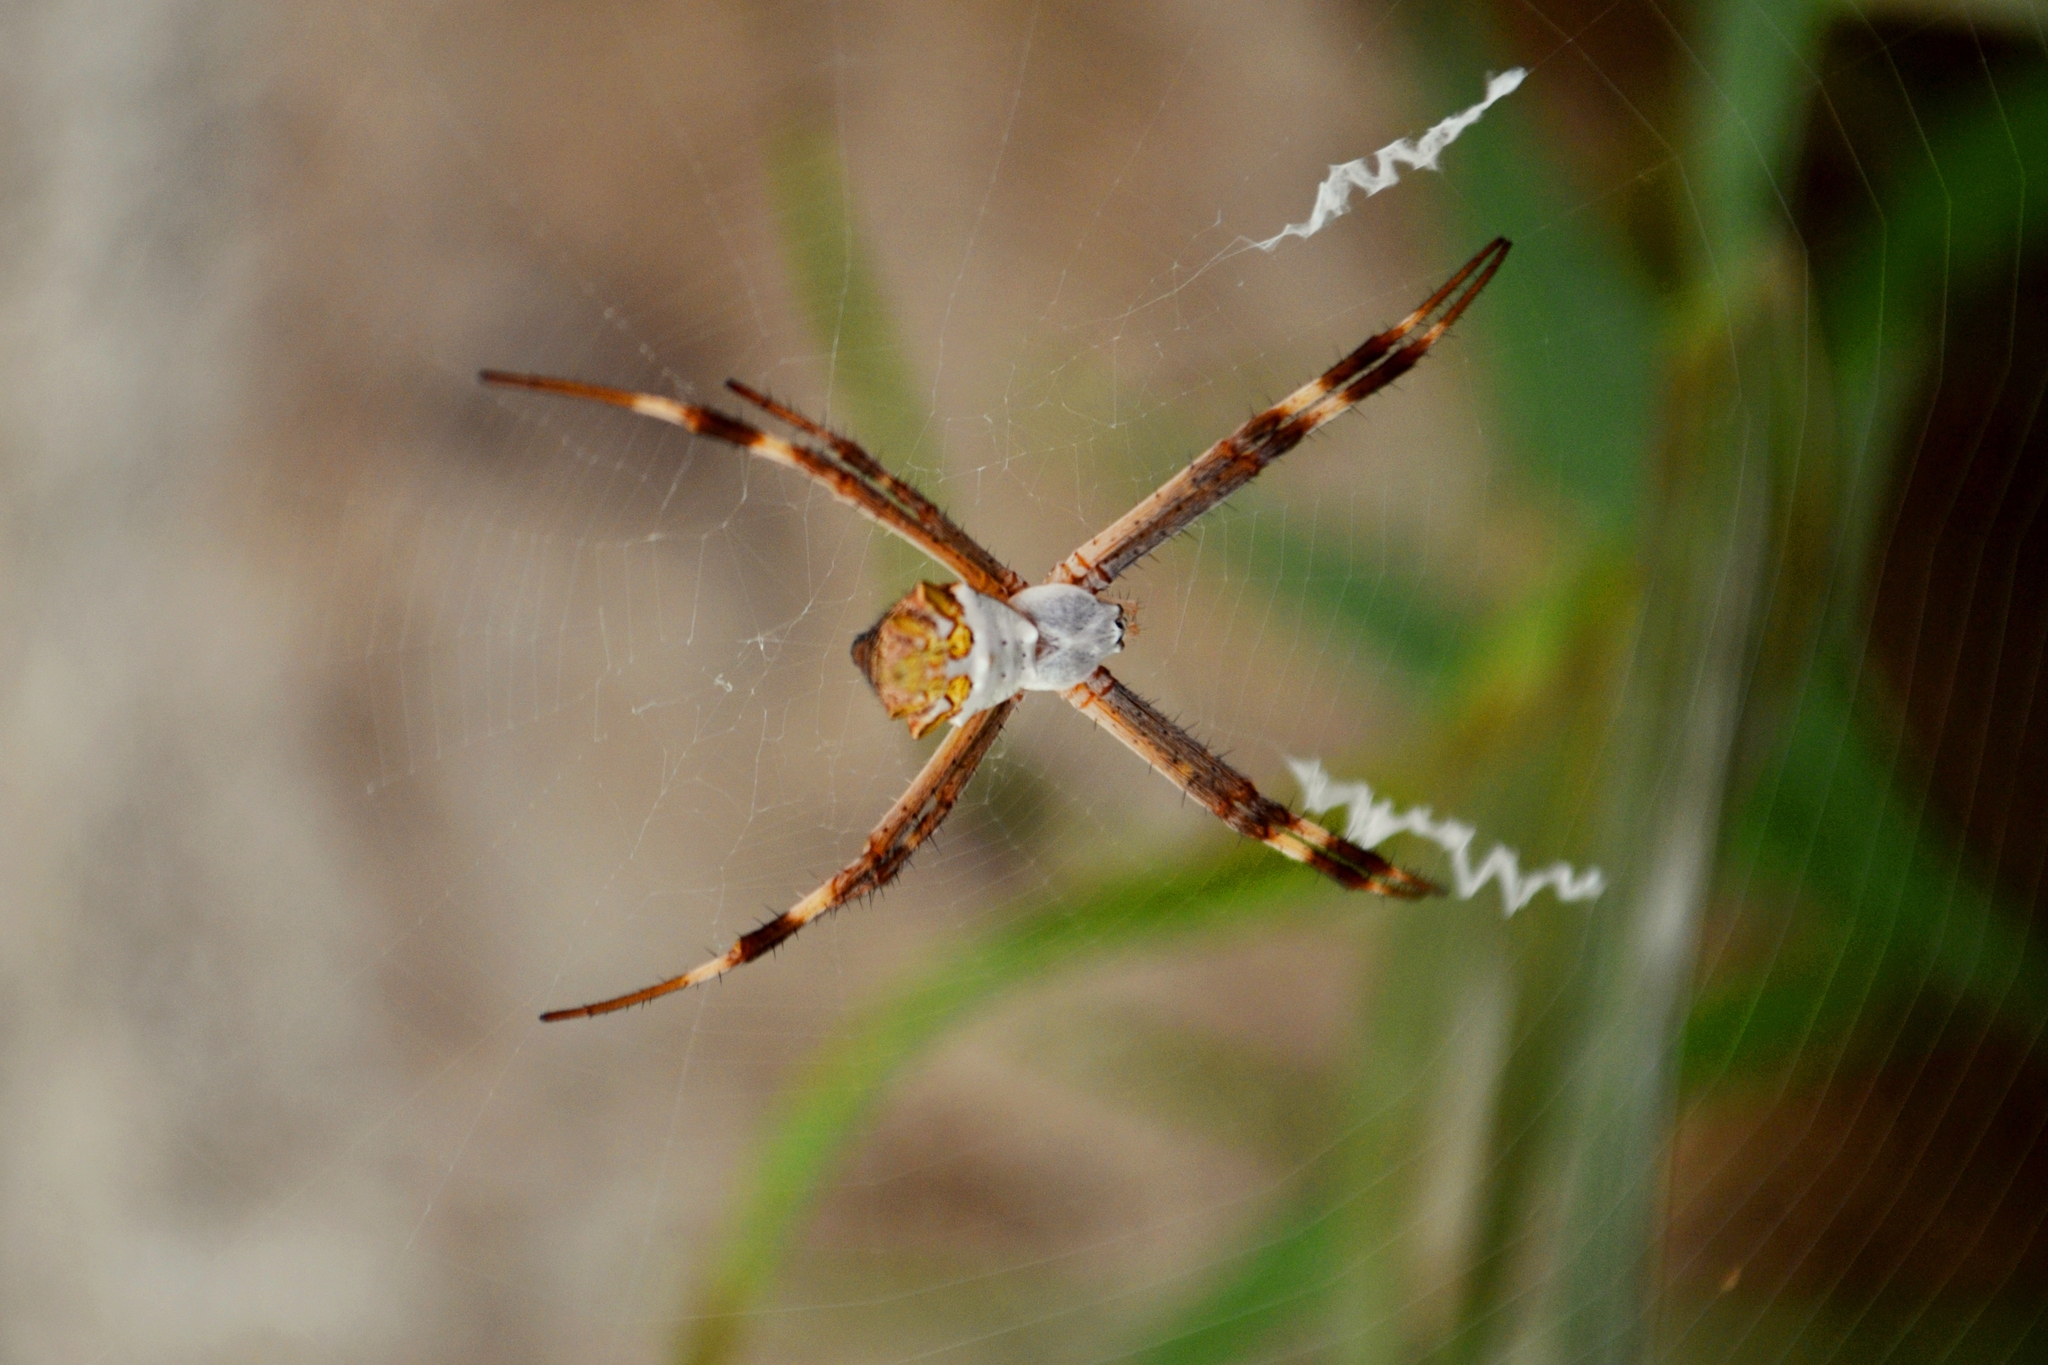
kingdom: Animalia
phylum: Arthropoda
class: Arachnida
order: Araneae
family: Araneidae
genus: Argiope
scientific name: Argiope argentata
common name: Orb weavers
